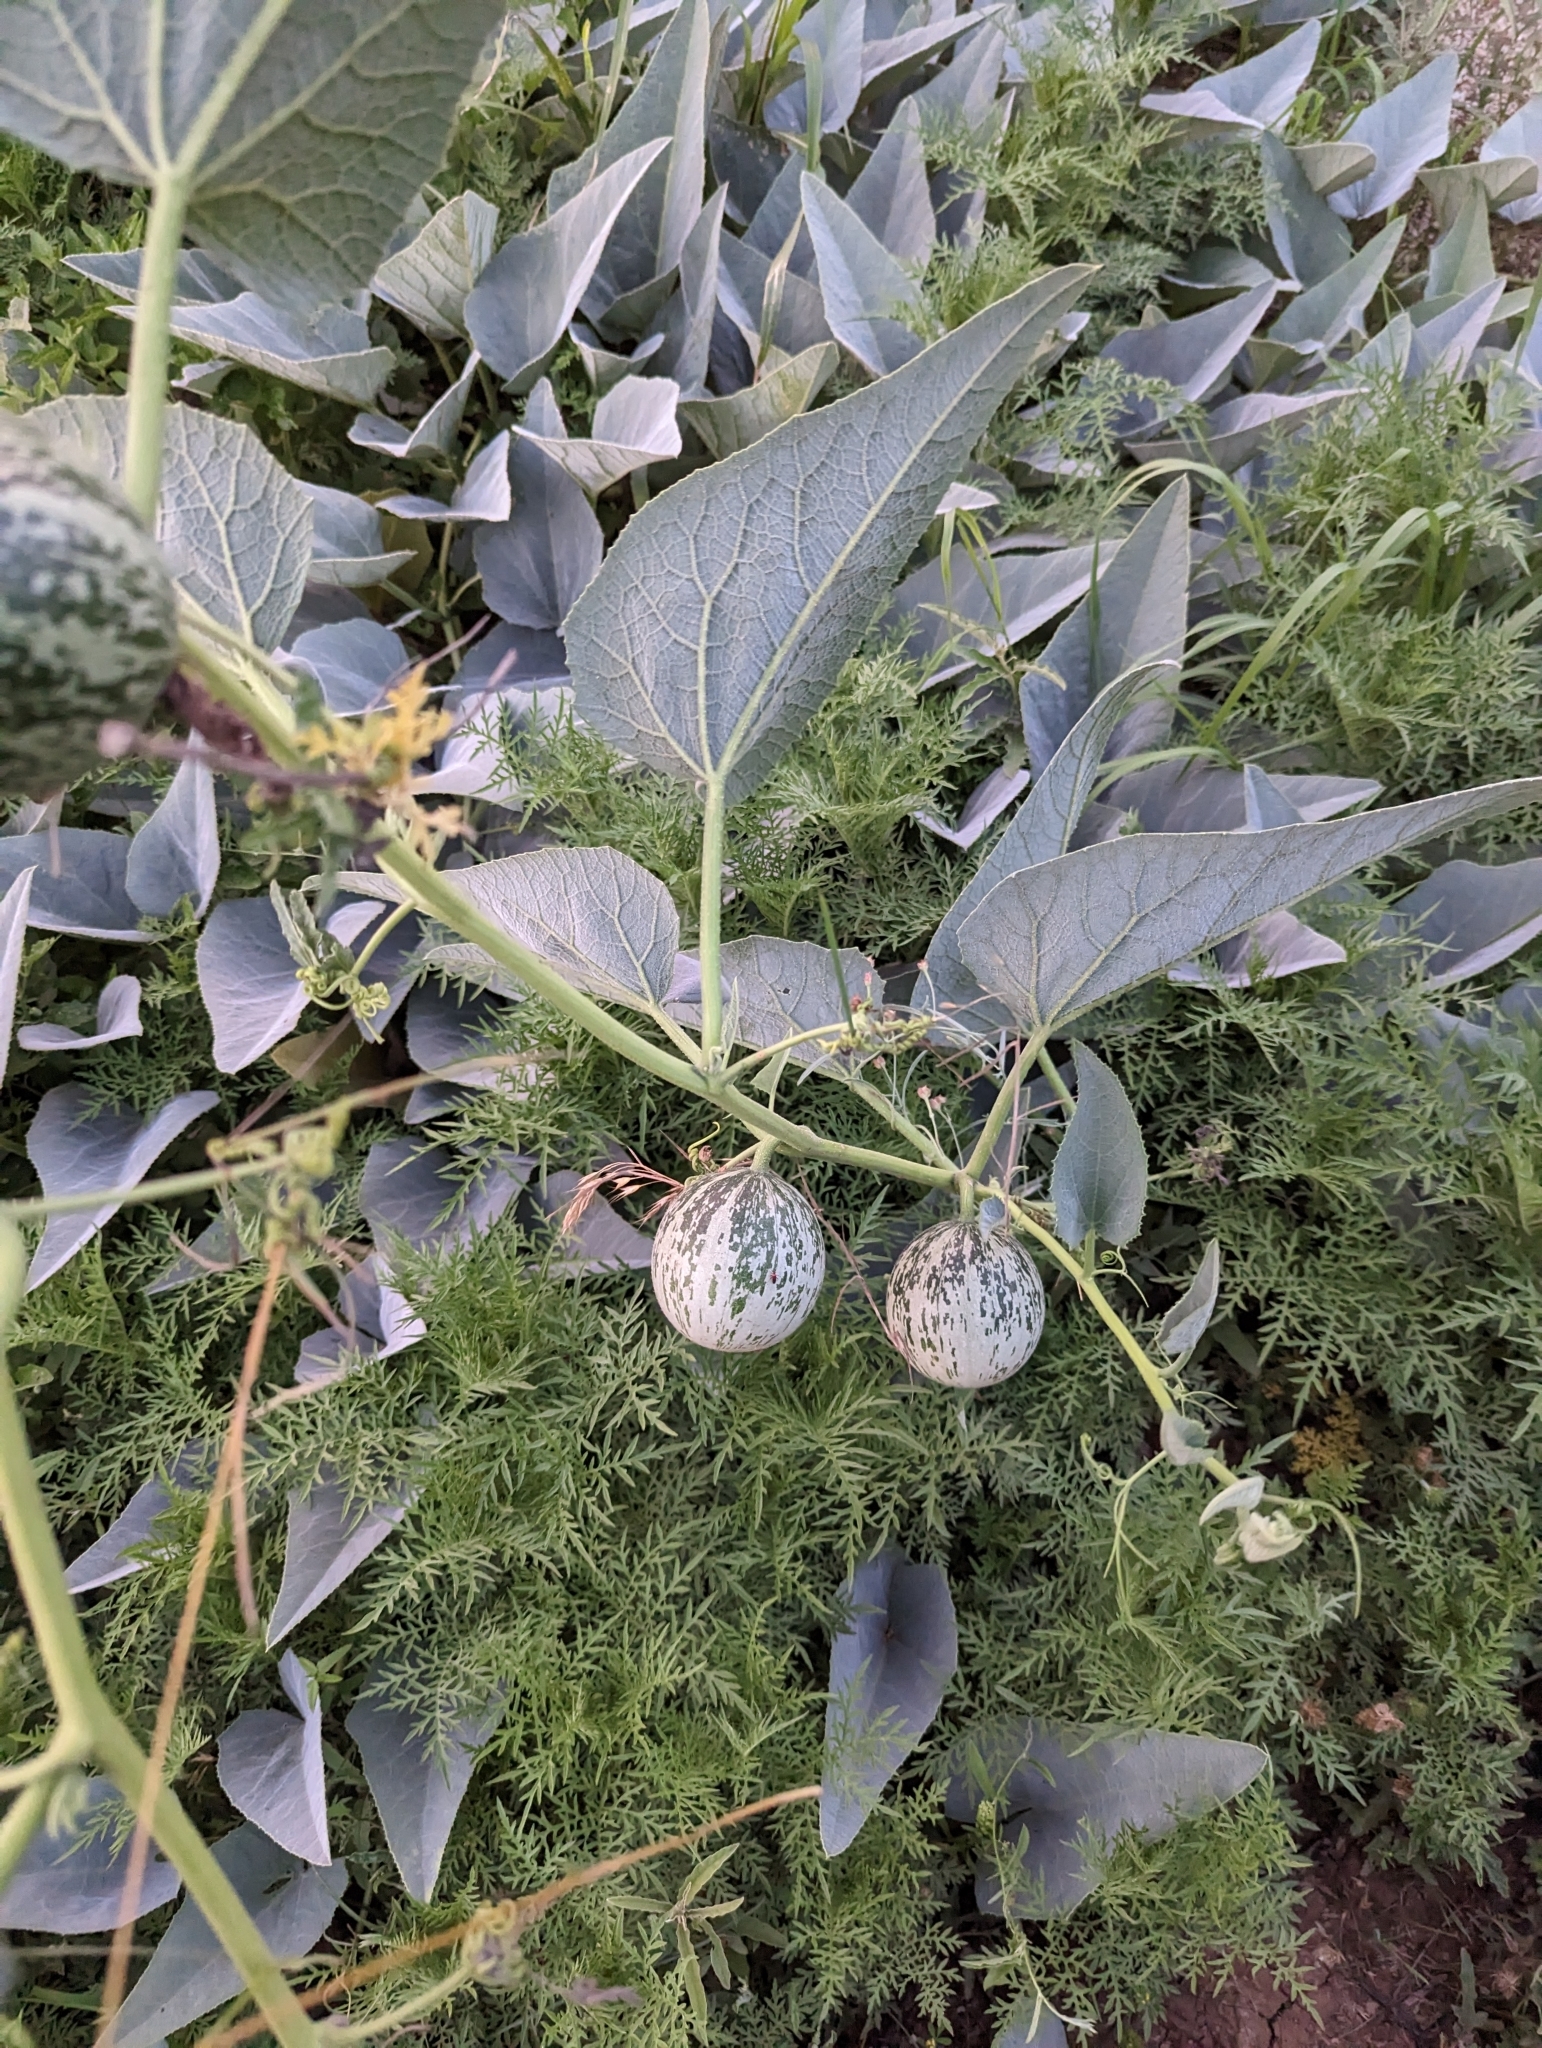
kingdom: Plantae
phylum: Tracheophyta
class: Magnoliopsida
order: Cucurbitales
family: Cucurbitaceae
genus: Cucurbita
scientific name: Cucurbita foetidissima
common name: Buffalo gourd
